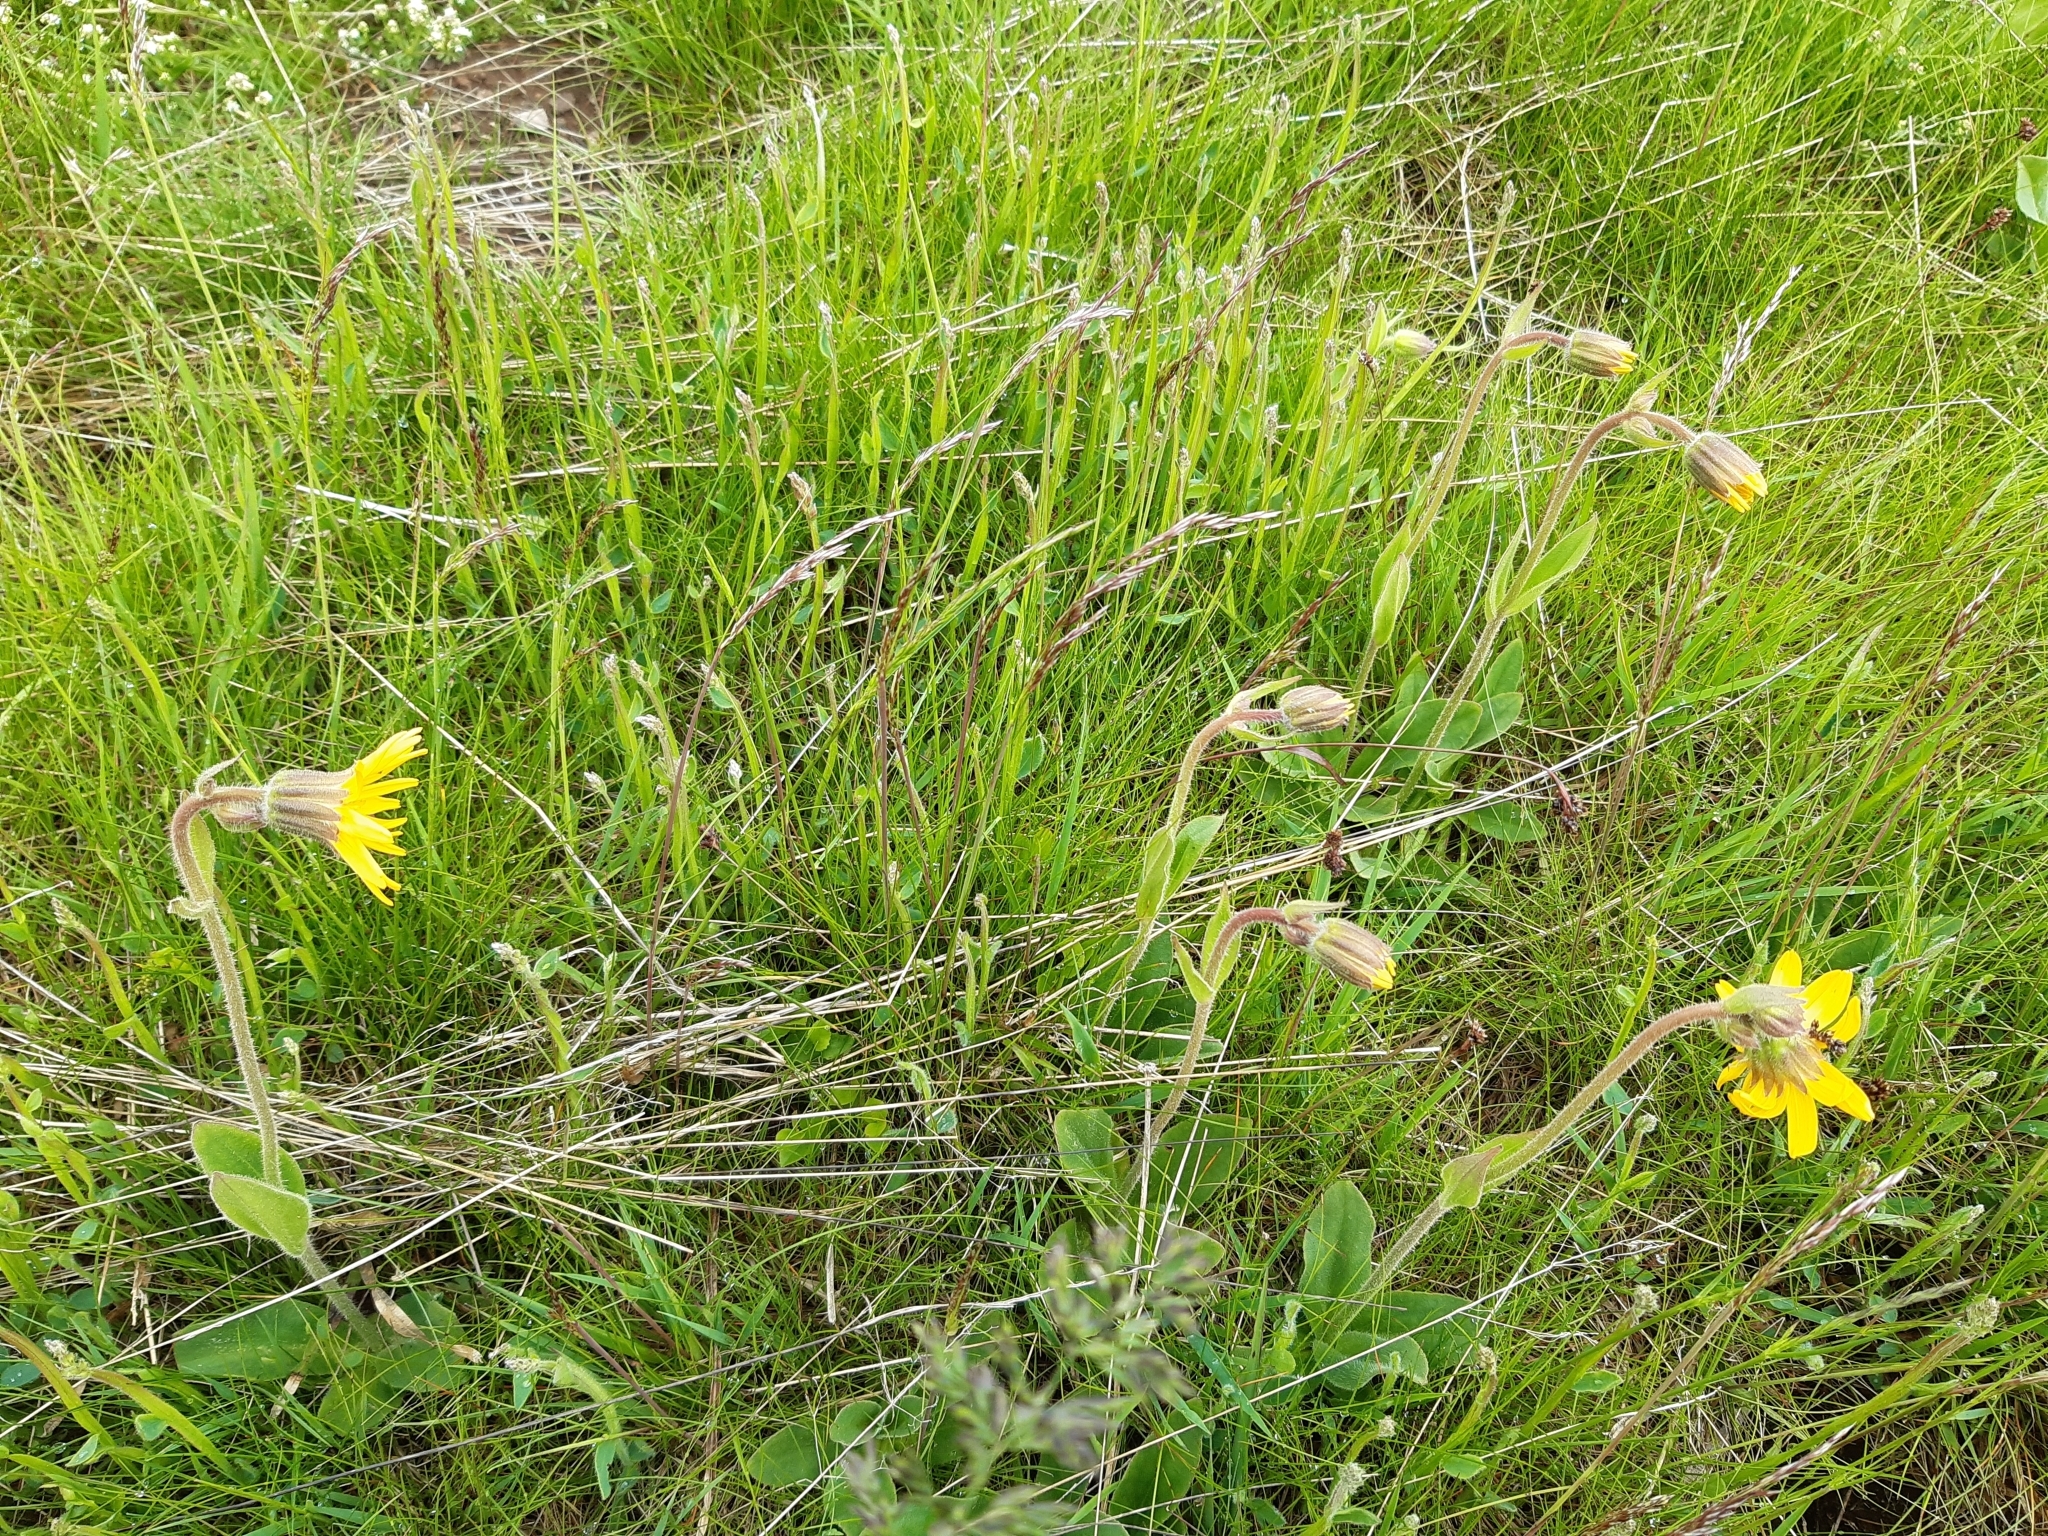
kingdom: Plantae
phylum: Tracheophyta
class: Magnoliopsida
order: Asterales
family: Asteraceae
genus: Arnica
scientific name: Arnica montana
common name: Leopard's bane
